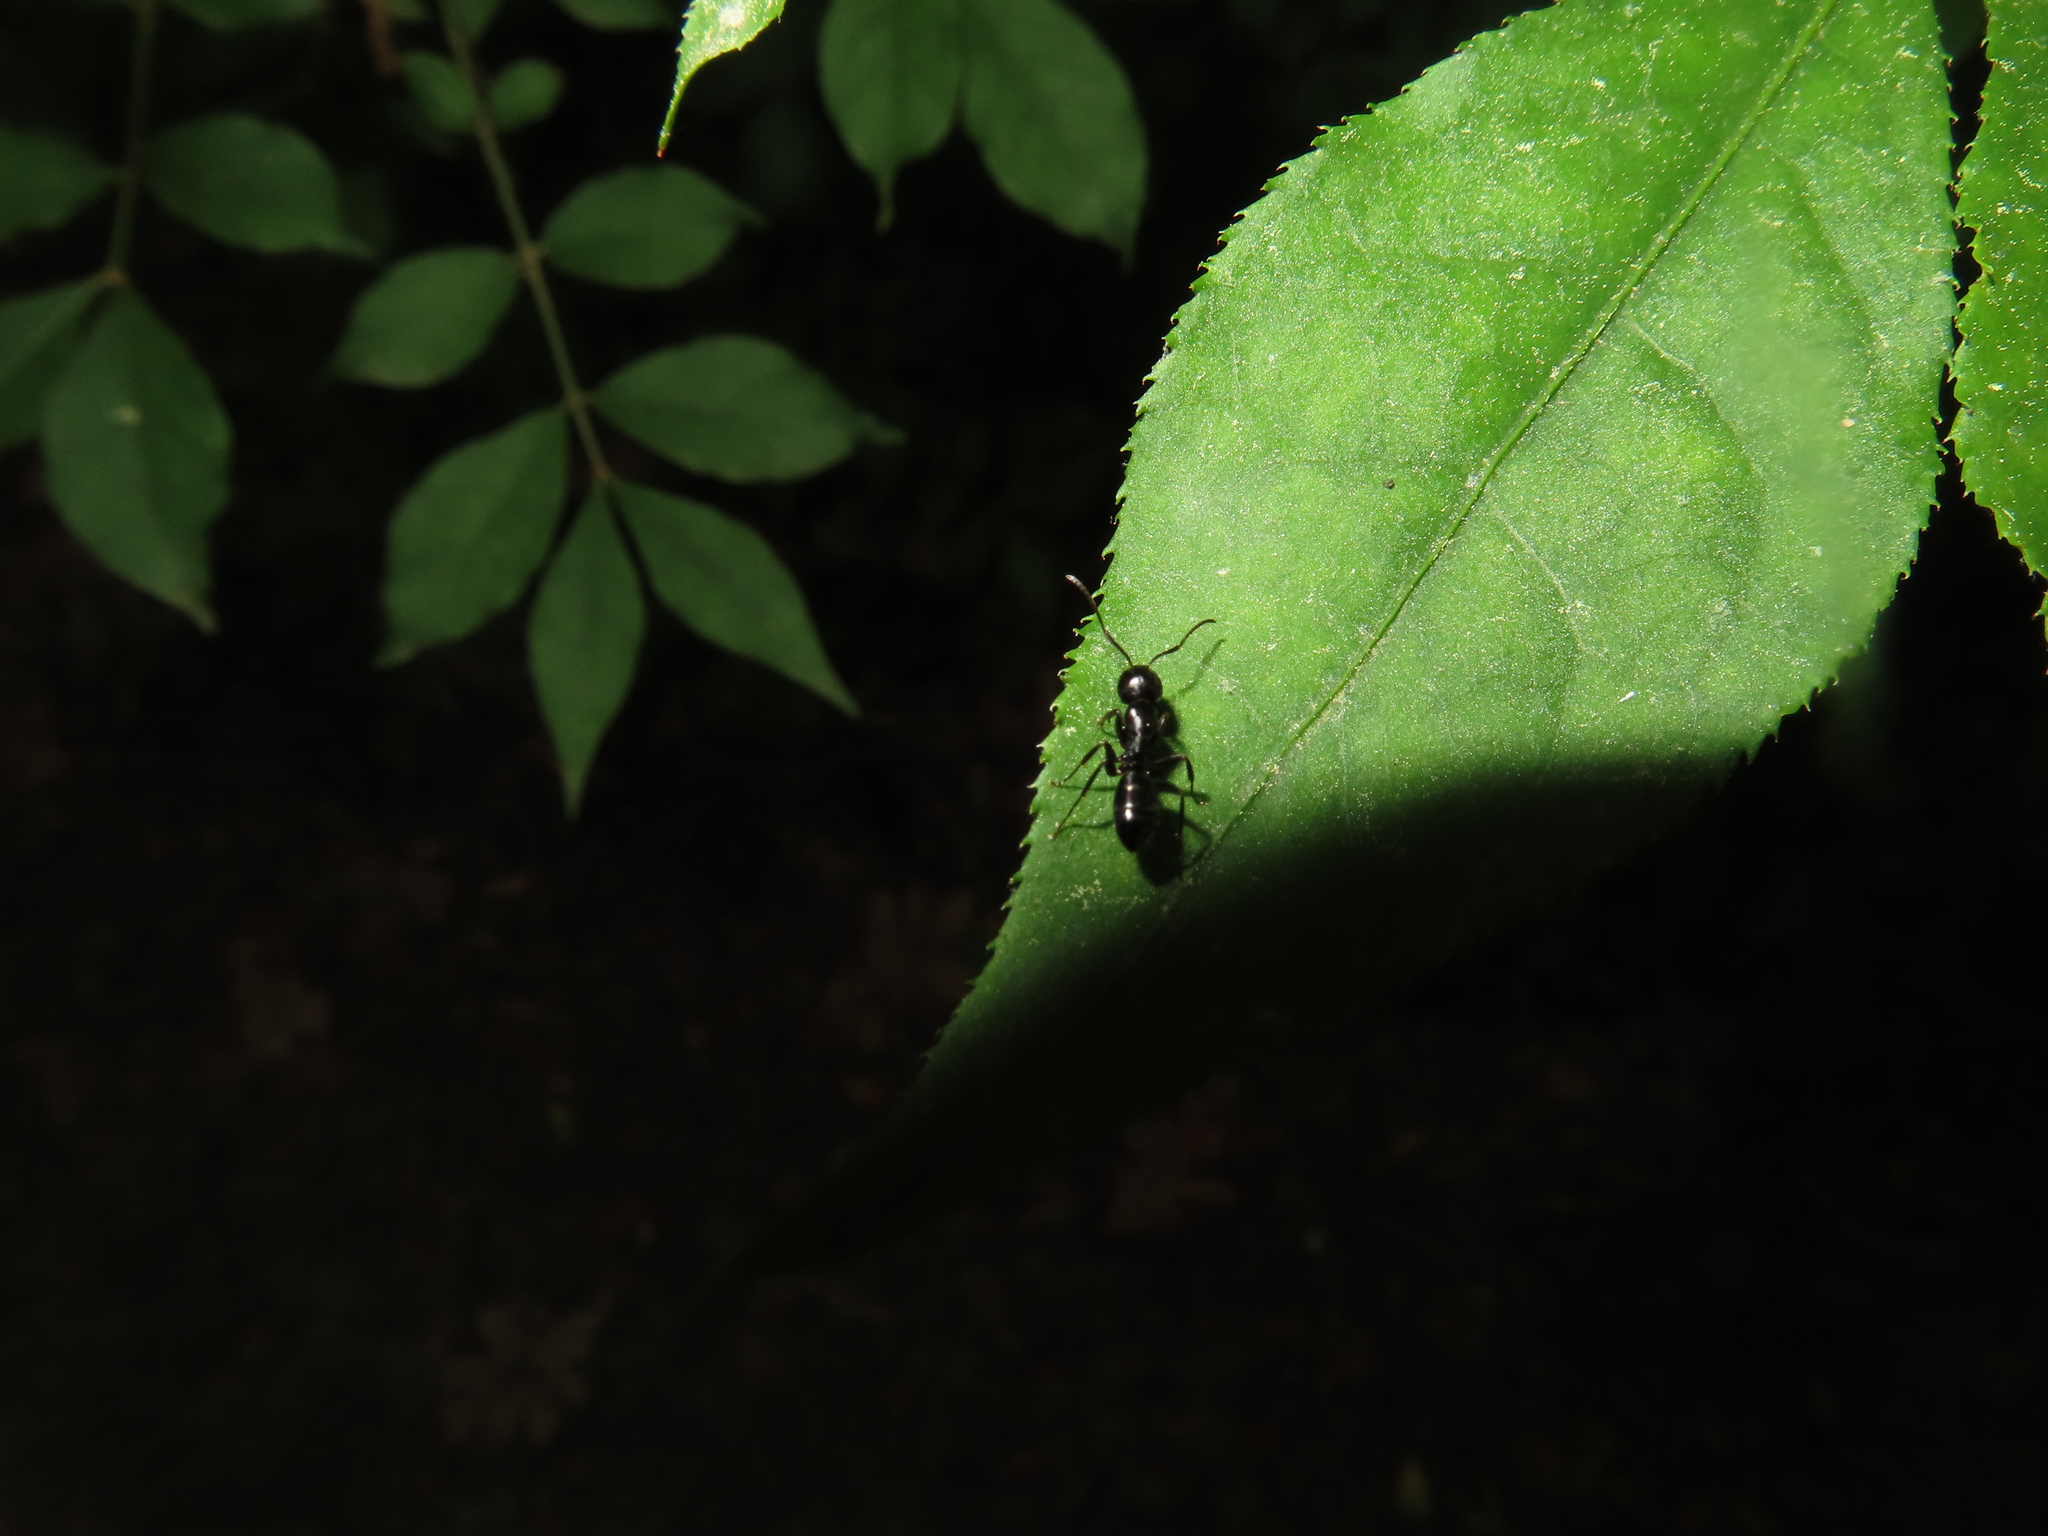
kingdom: Animalia
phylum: Arthropoda
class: Insecta
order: Hymenoptera
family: Formicidae
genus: Myrmentoma
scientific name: Myrmentoma
